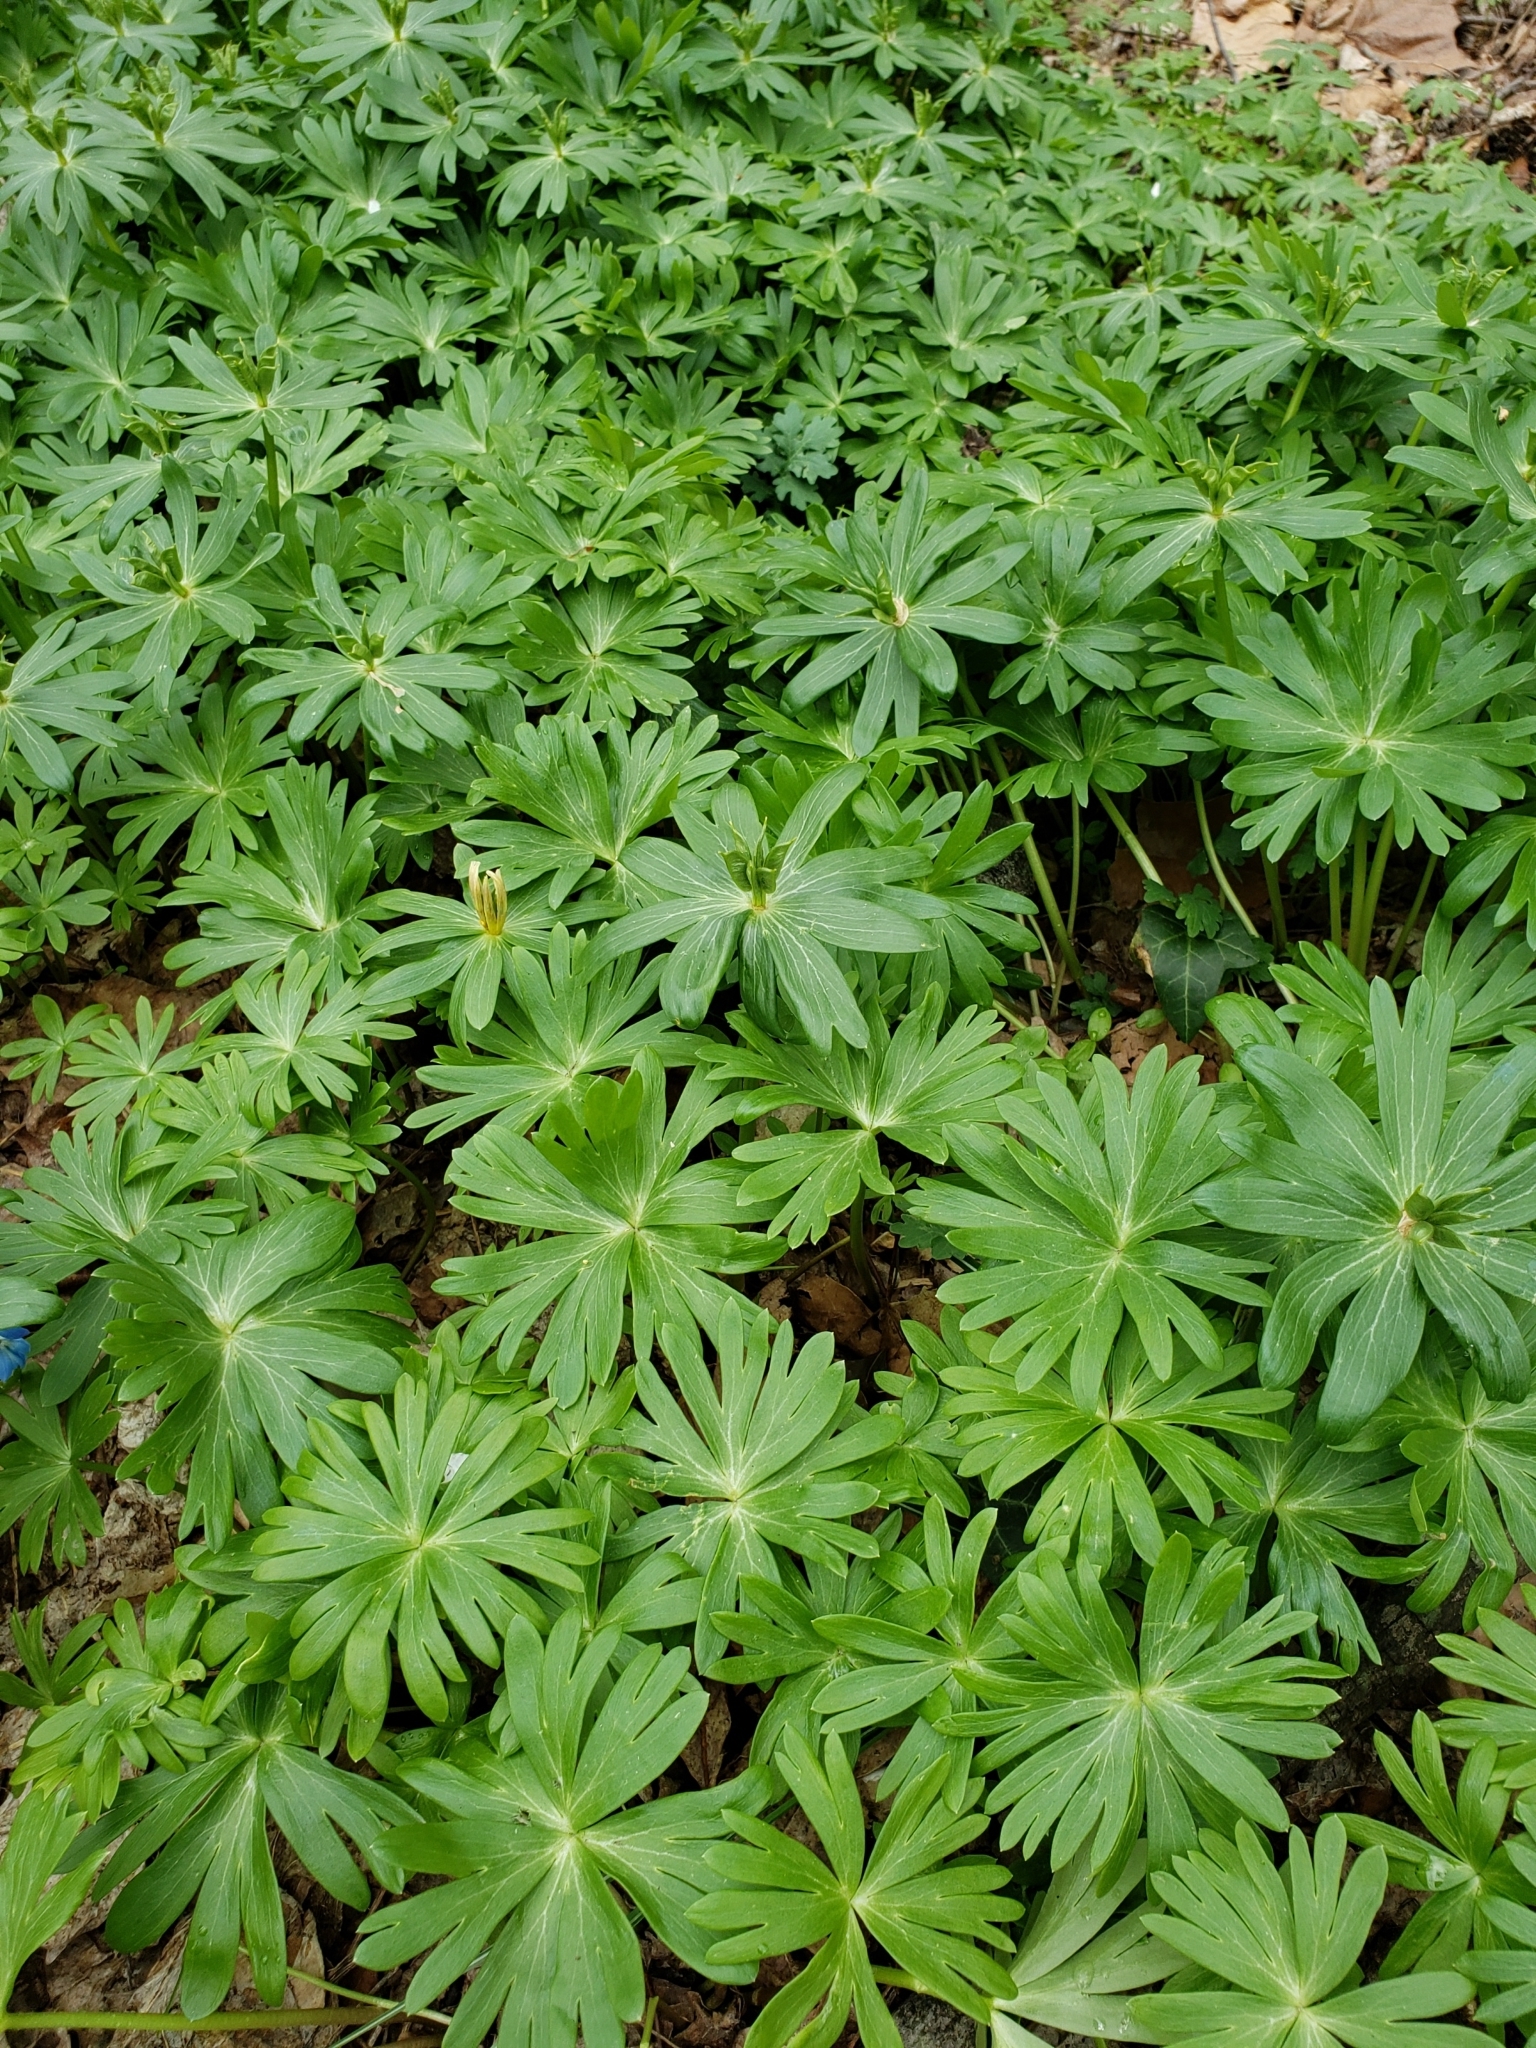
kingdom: Plantae
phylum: Tracheophyta
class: Magnoliopsida
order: Ranunculales
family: Ranunculaceae
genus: Eranthis
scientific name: Eranthis hyemalis
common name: Winter aconite
